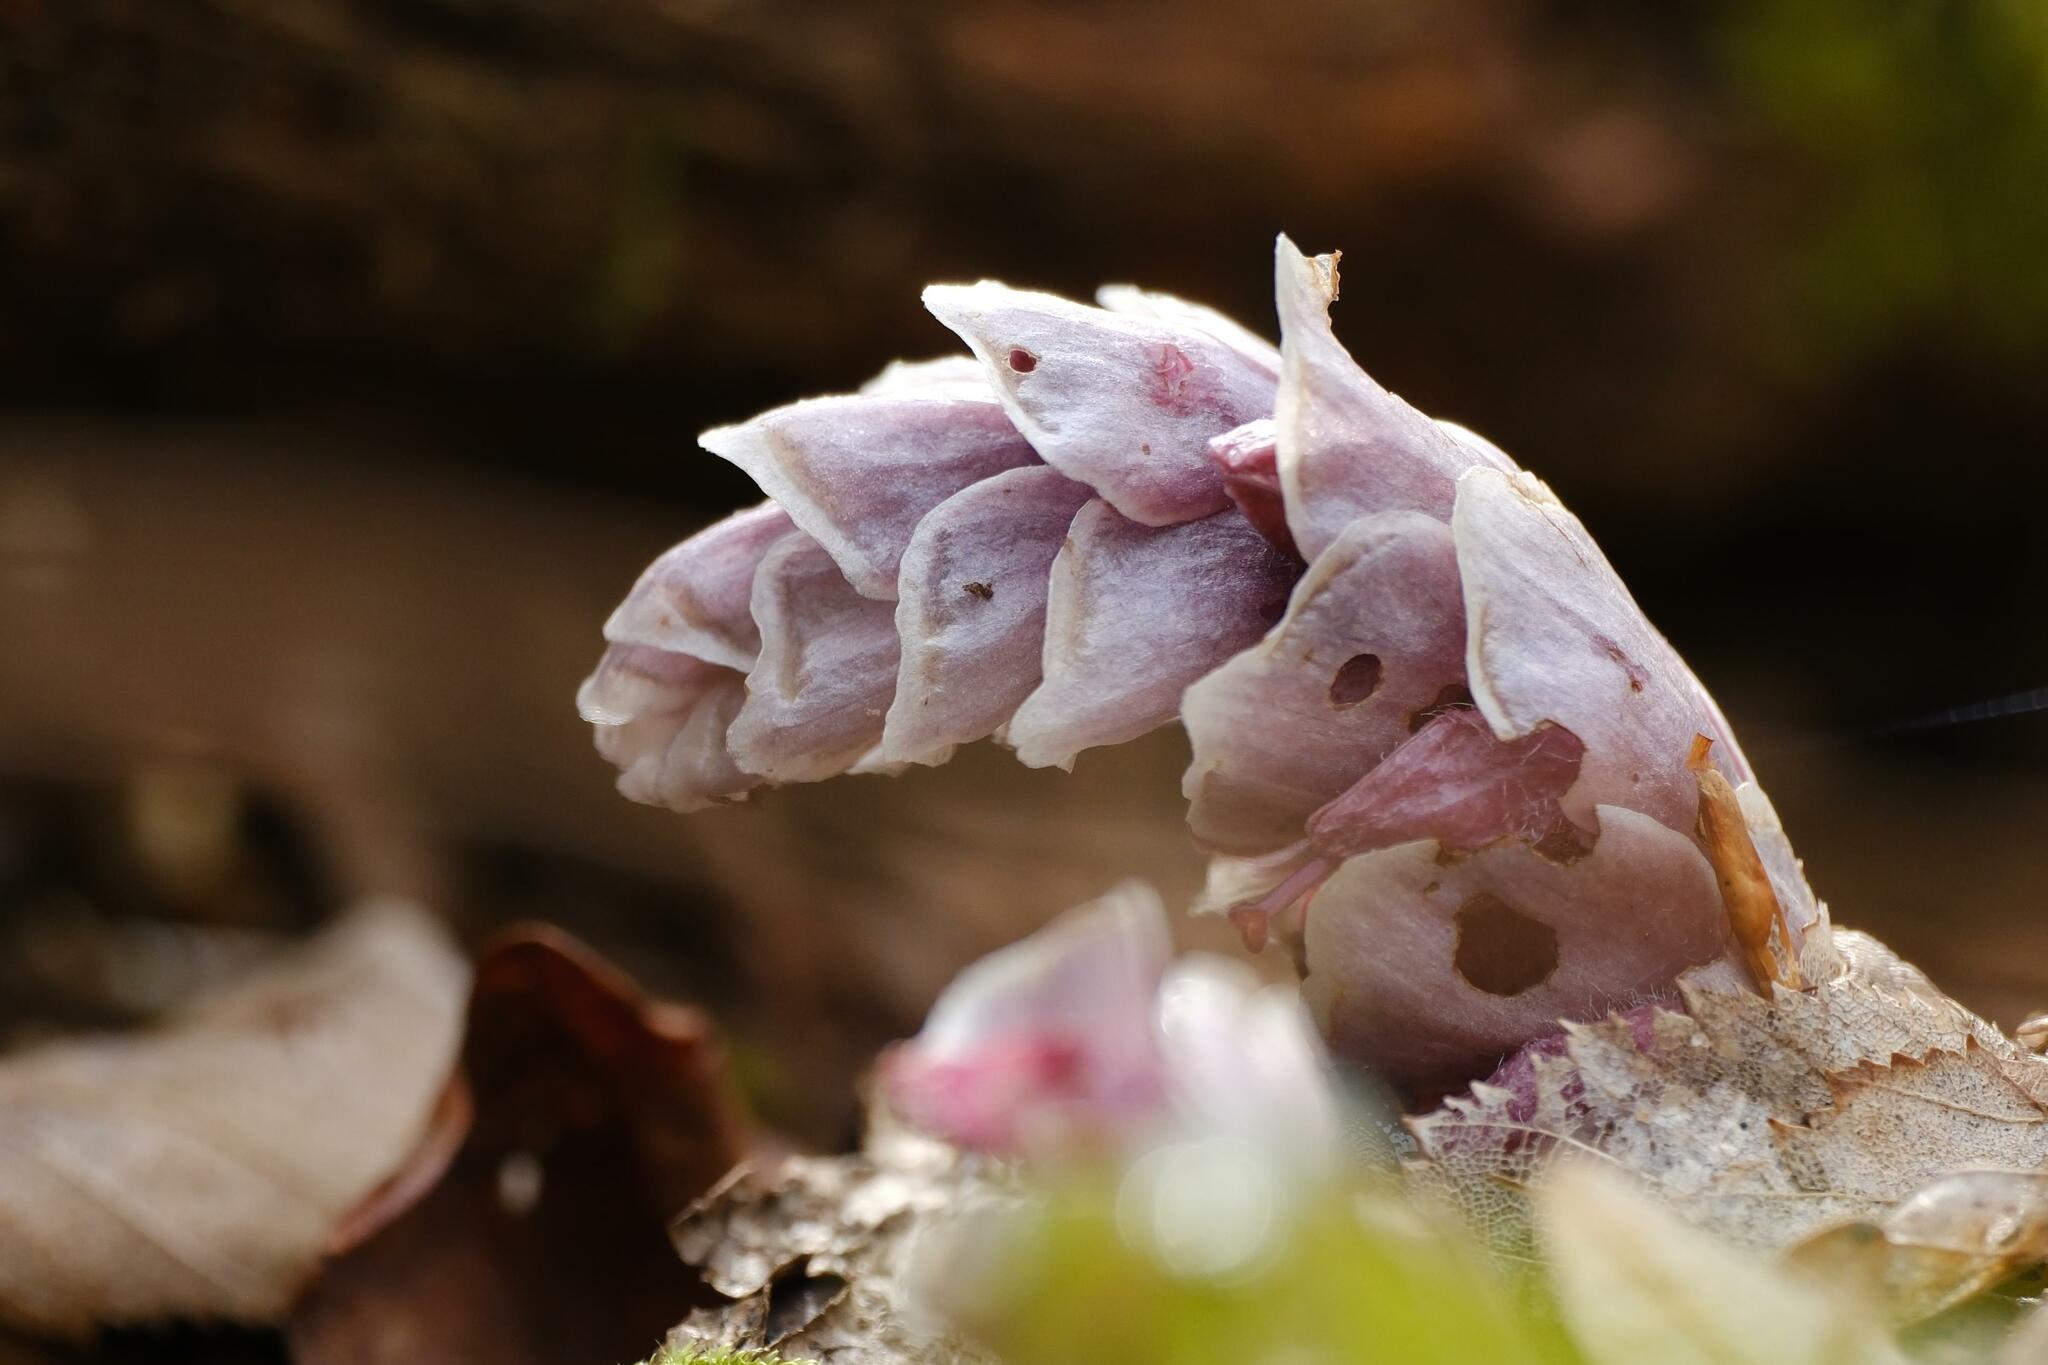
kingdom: Plantae
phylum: Tracheophyta
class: Magnoliopsida
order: Lamiales
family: Orobanchaceae
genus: Lathraea
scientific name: Lathraea squamaria
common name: Toothwort
